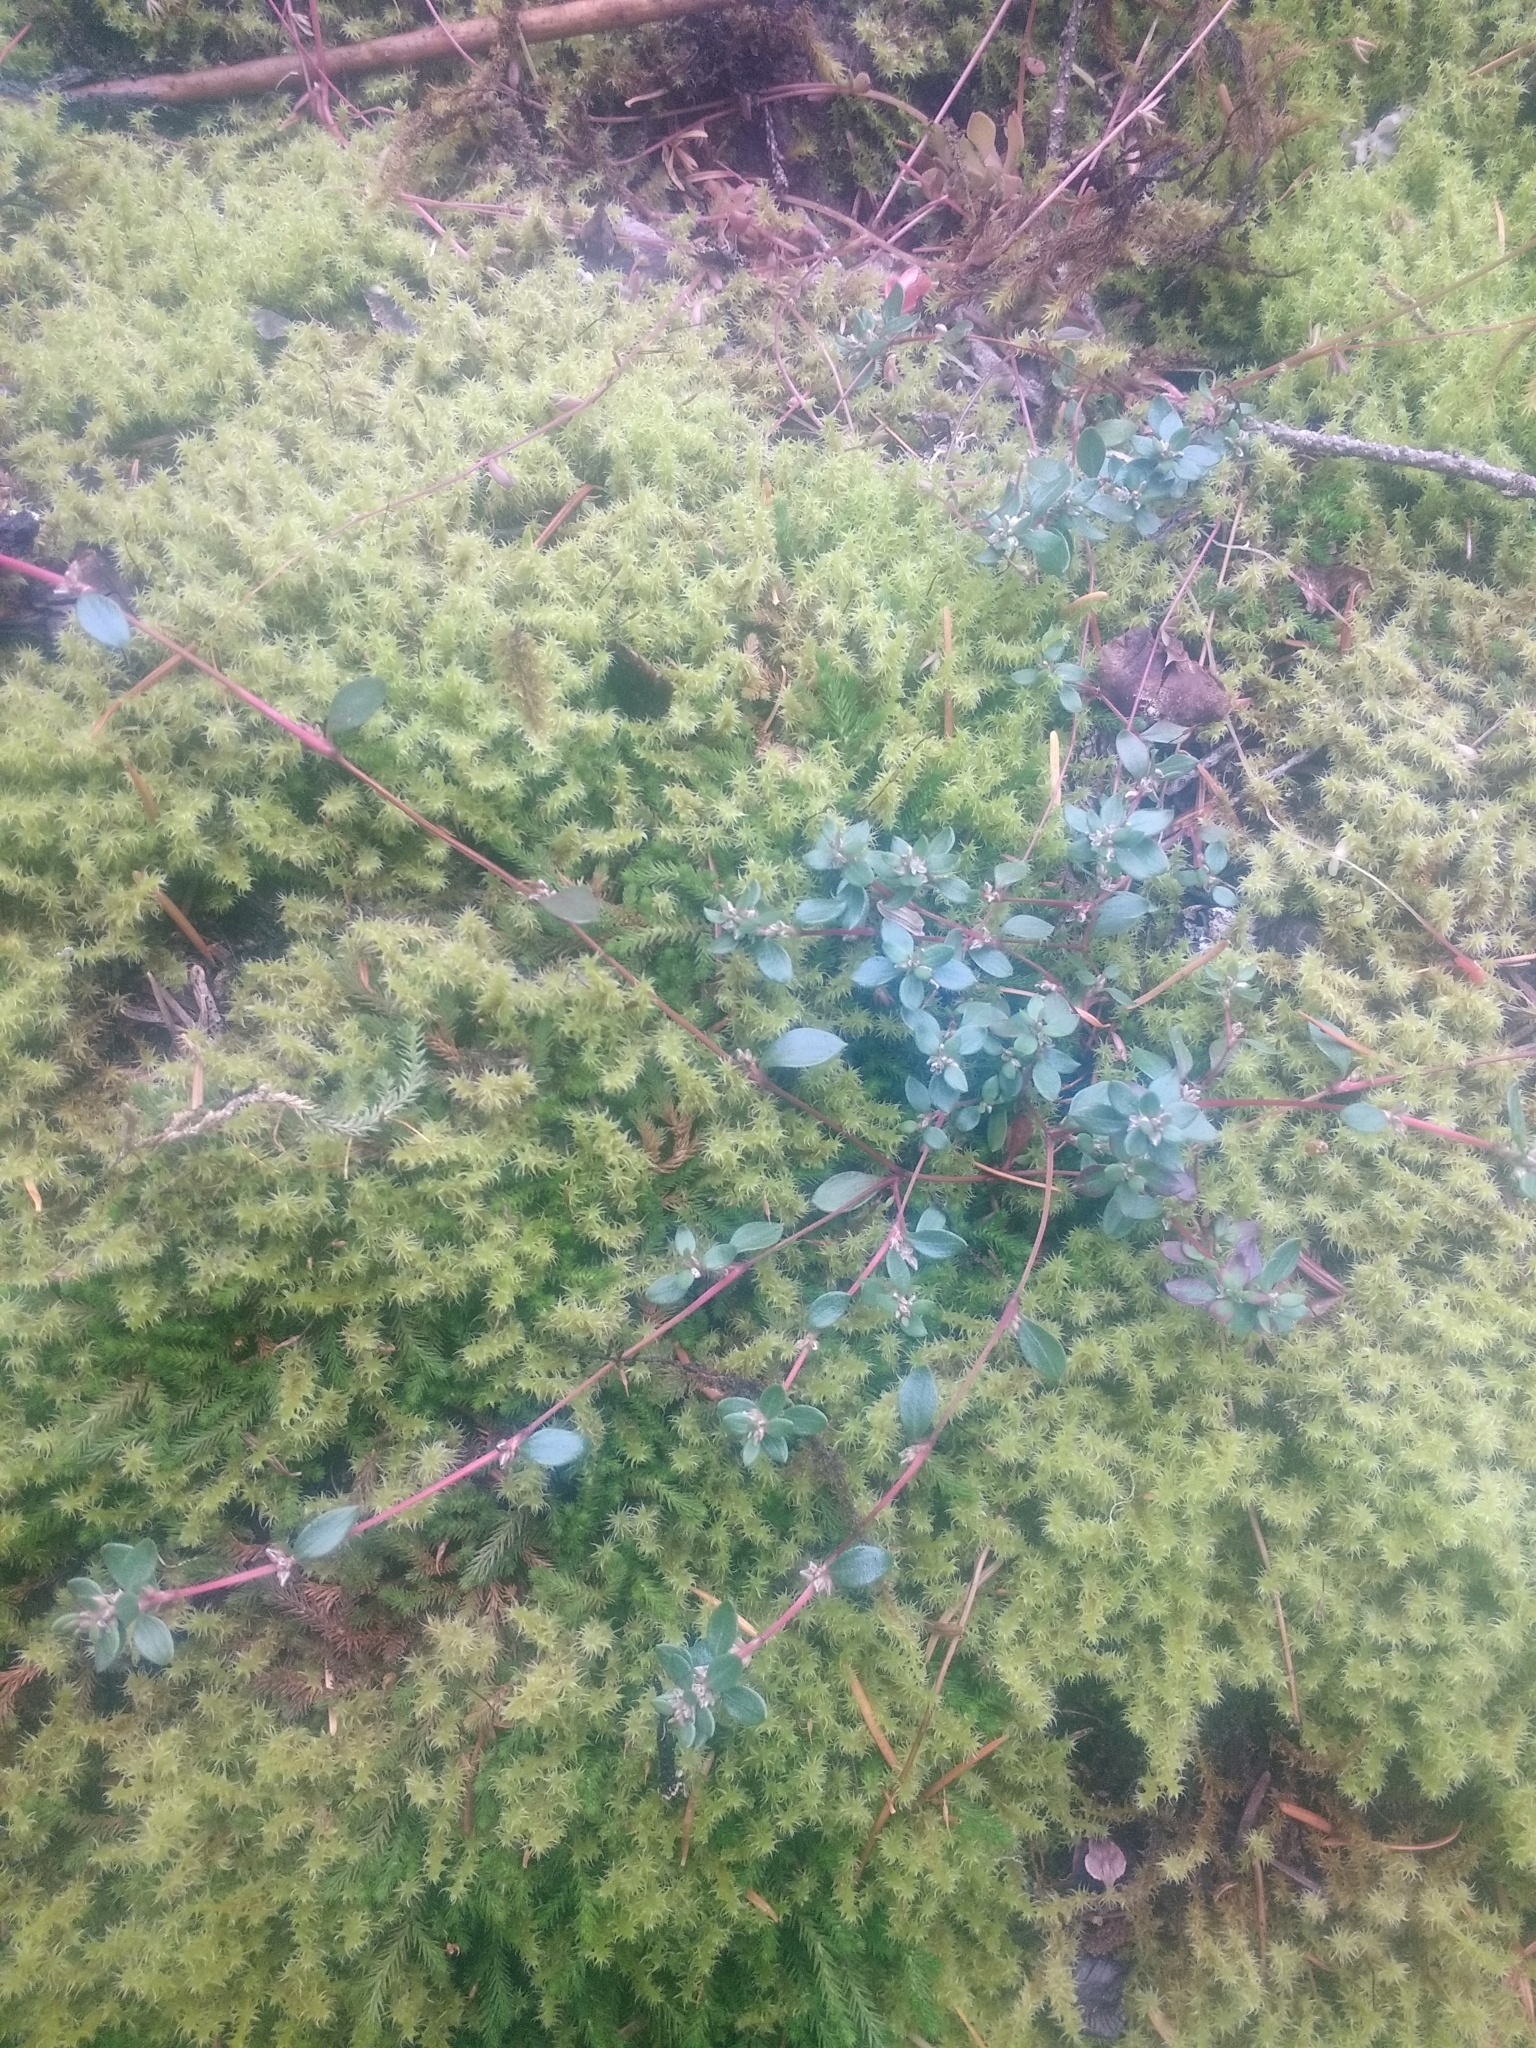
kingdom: Plantae
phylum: Tracheophyta
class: Magnoliopsida
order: Caryophyllales
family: Polygonaceae
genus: Polygonum
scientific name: Polygonum minimum
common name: Broad-leaved knotweed
